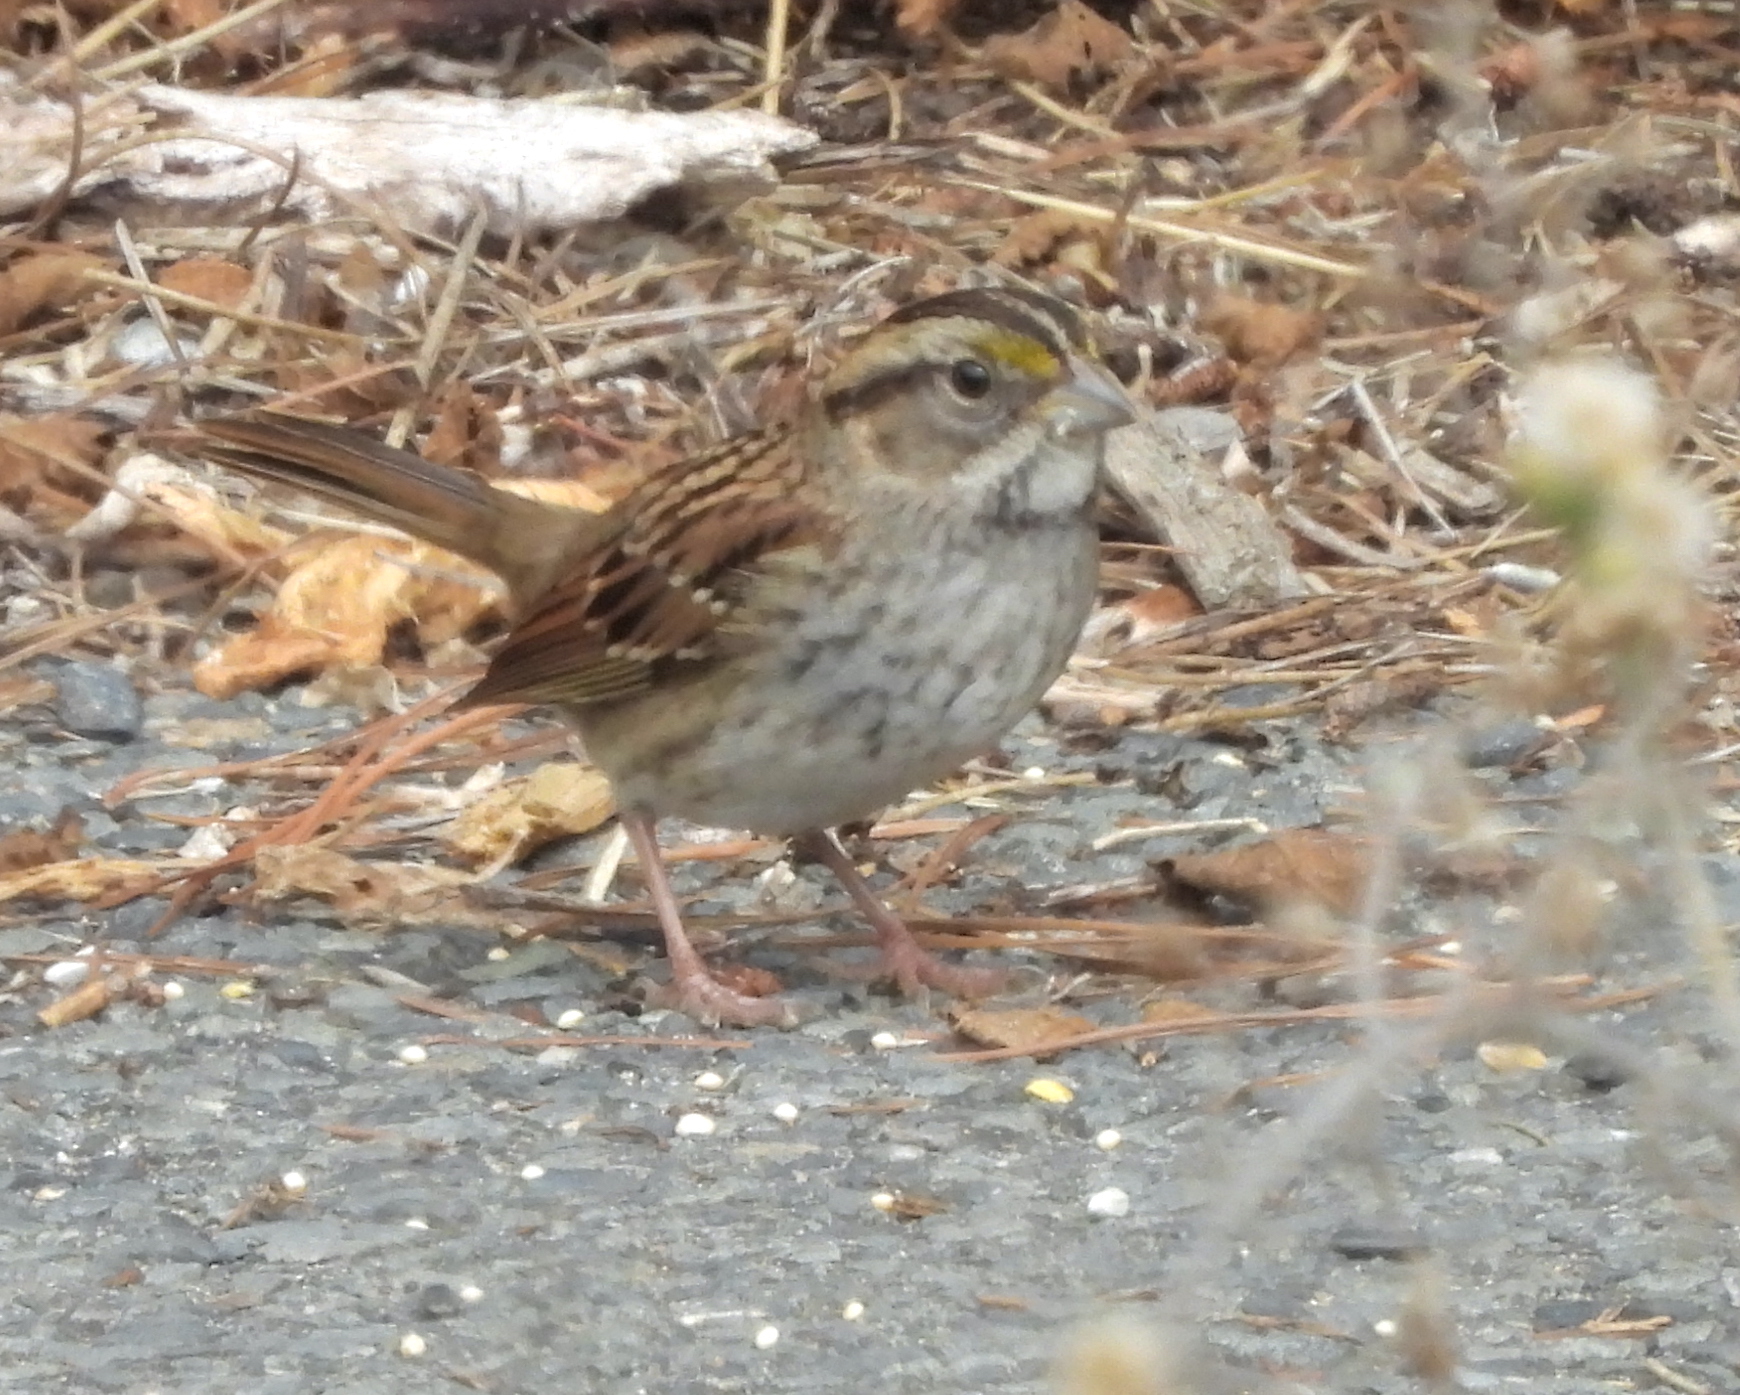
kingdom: Animalia
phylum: Chordata
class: Aves
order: Passeriformes
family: Passerellidae
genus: Zonotrichia
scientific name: Zonotrichia albicollis
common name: White-throated sparrow
